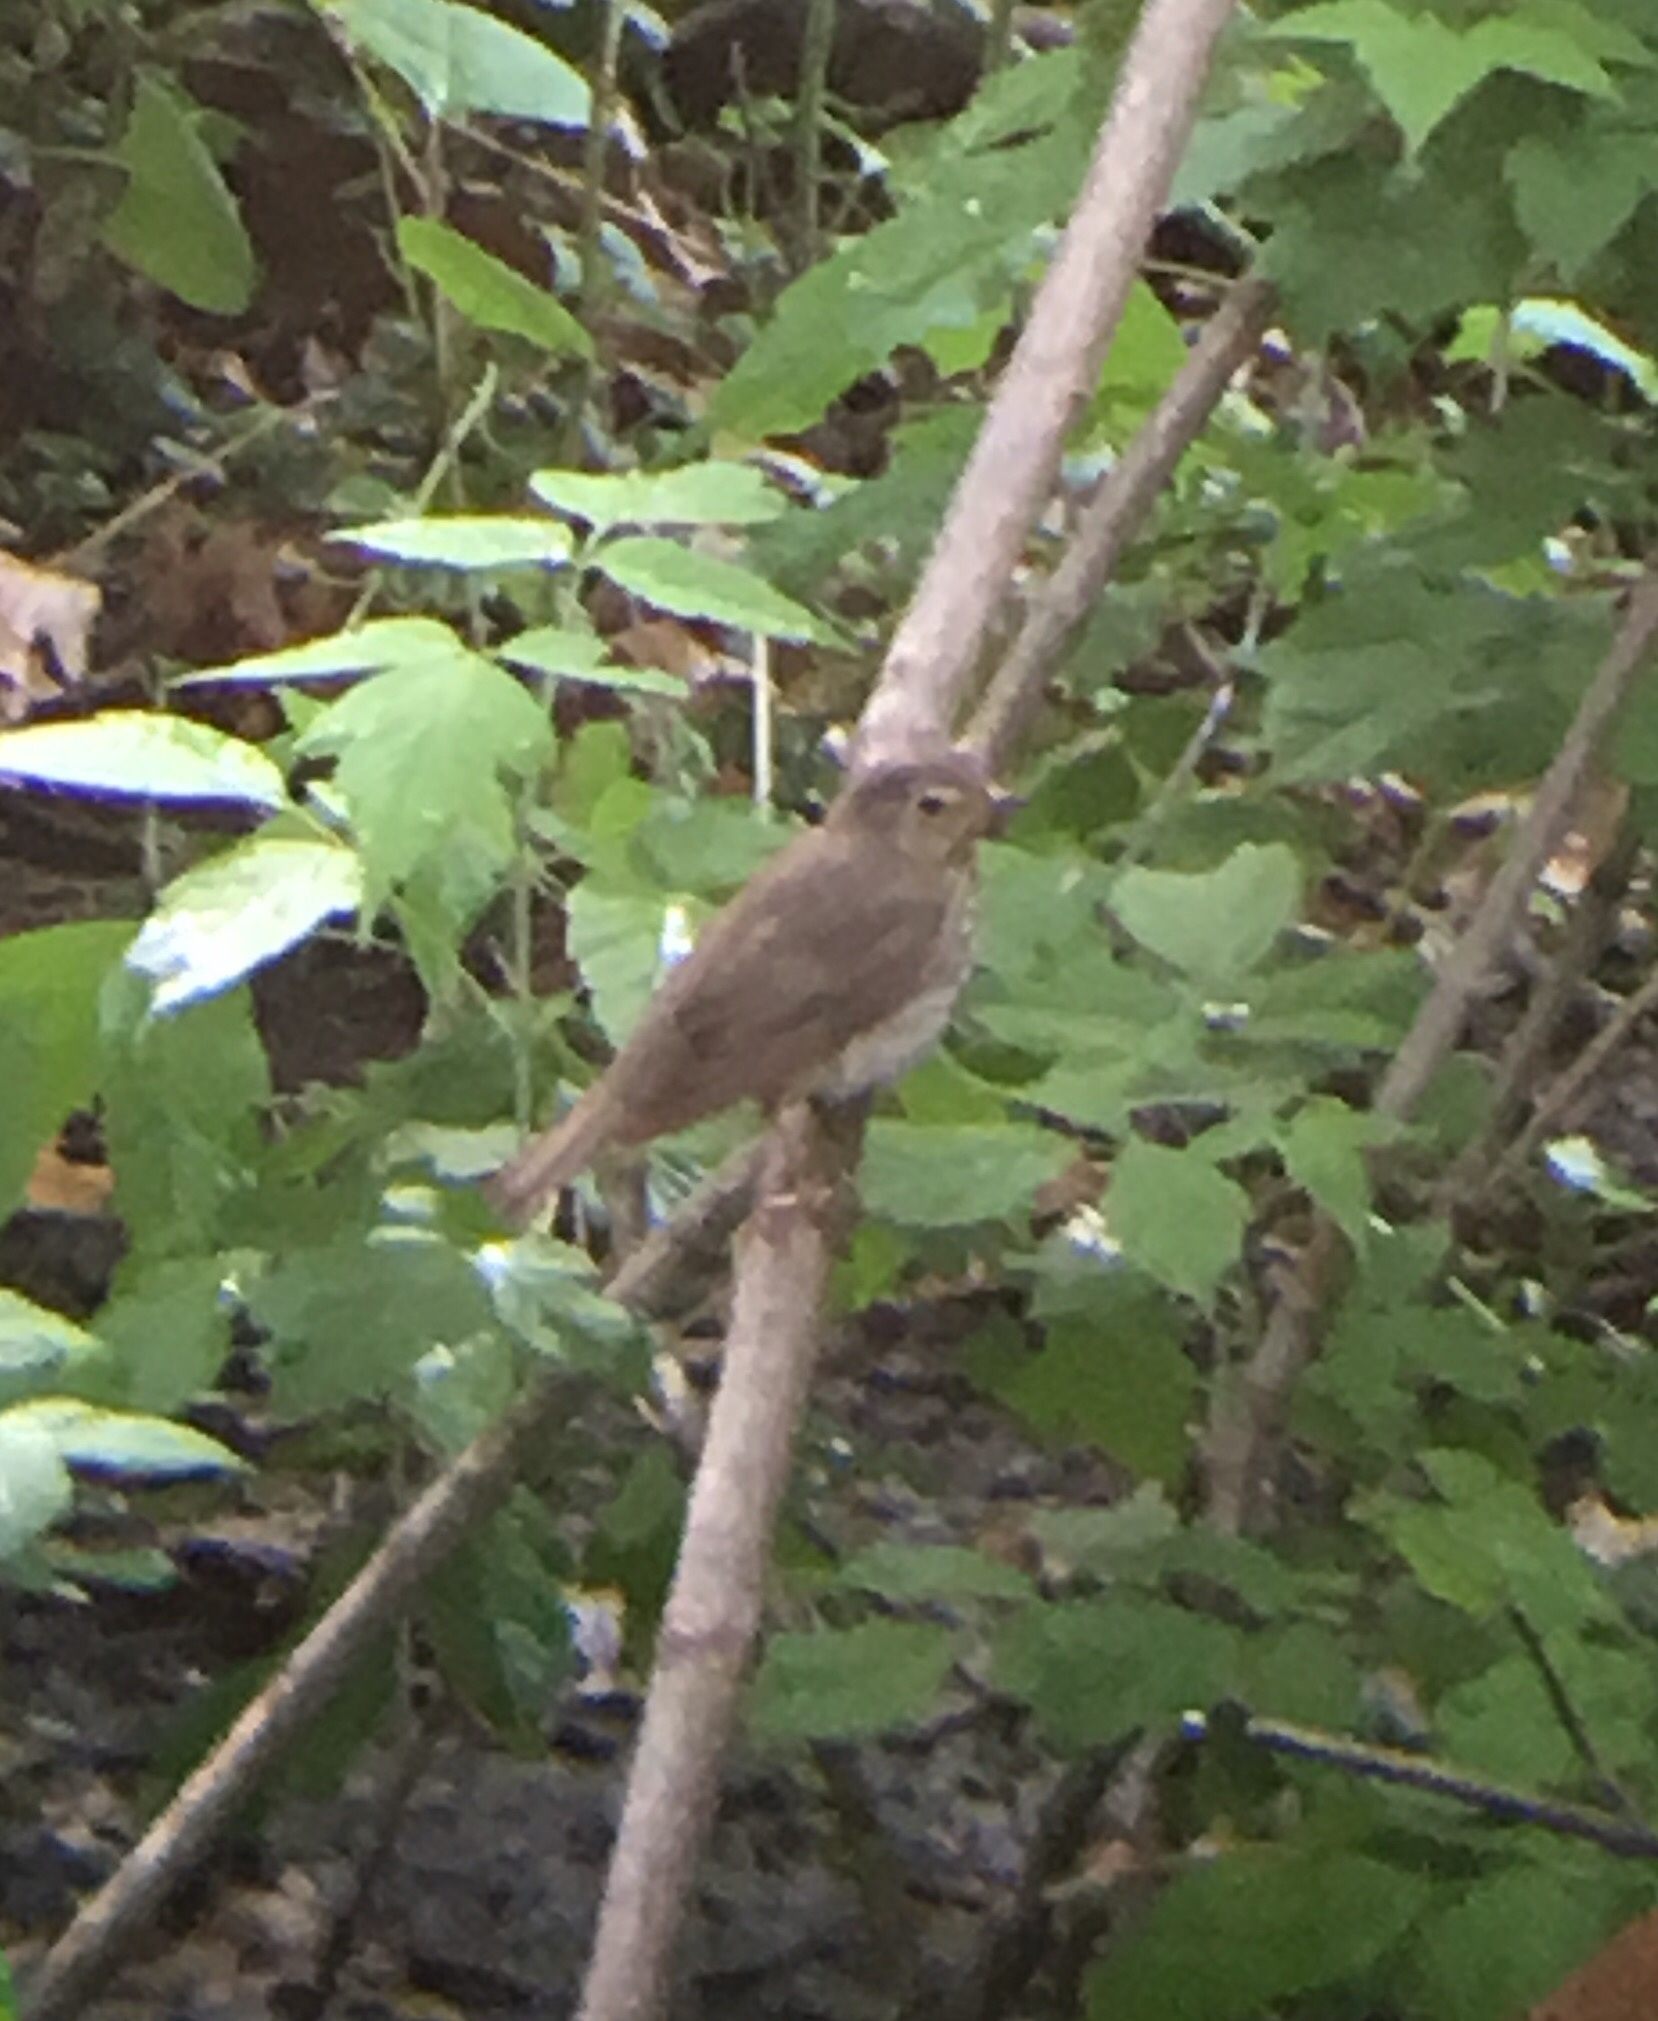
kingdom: Animalia
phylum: Chordata
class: Aves
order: Passeriformes
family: Turdidae
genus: Catharus
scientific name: Catharus ustulatus
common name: Swainson's thrush
